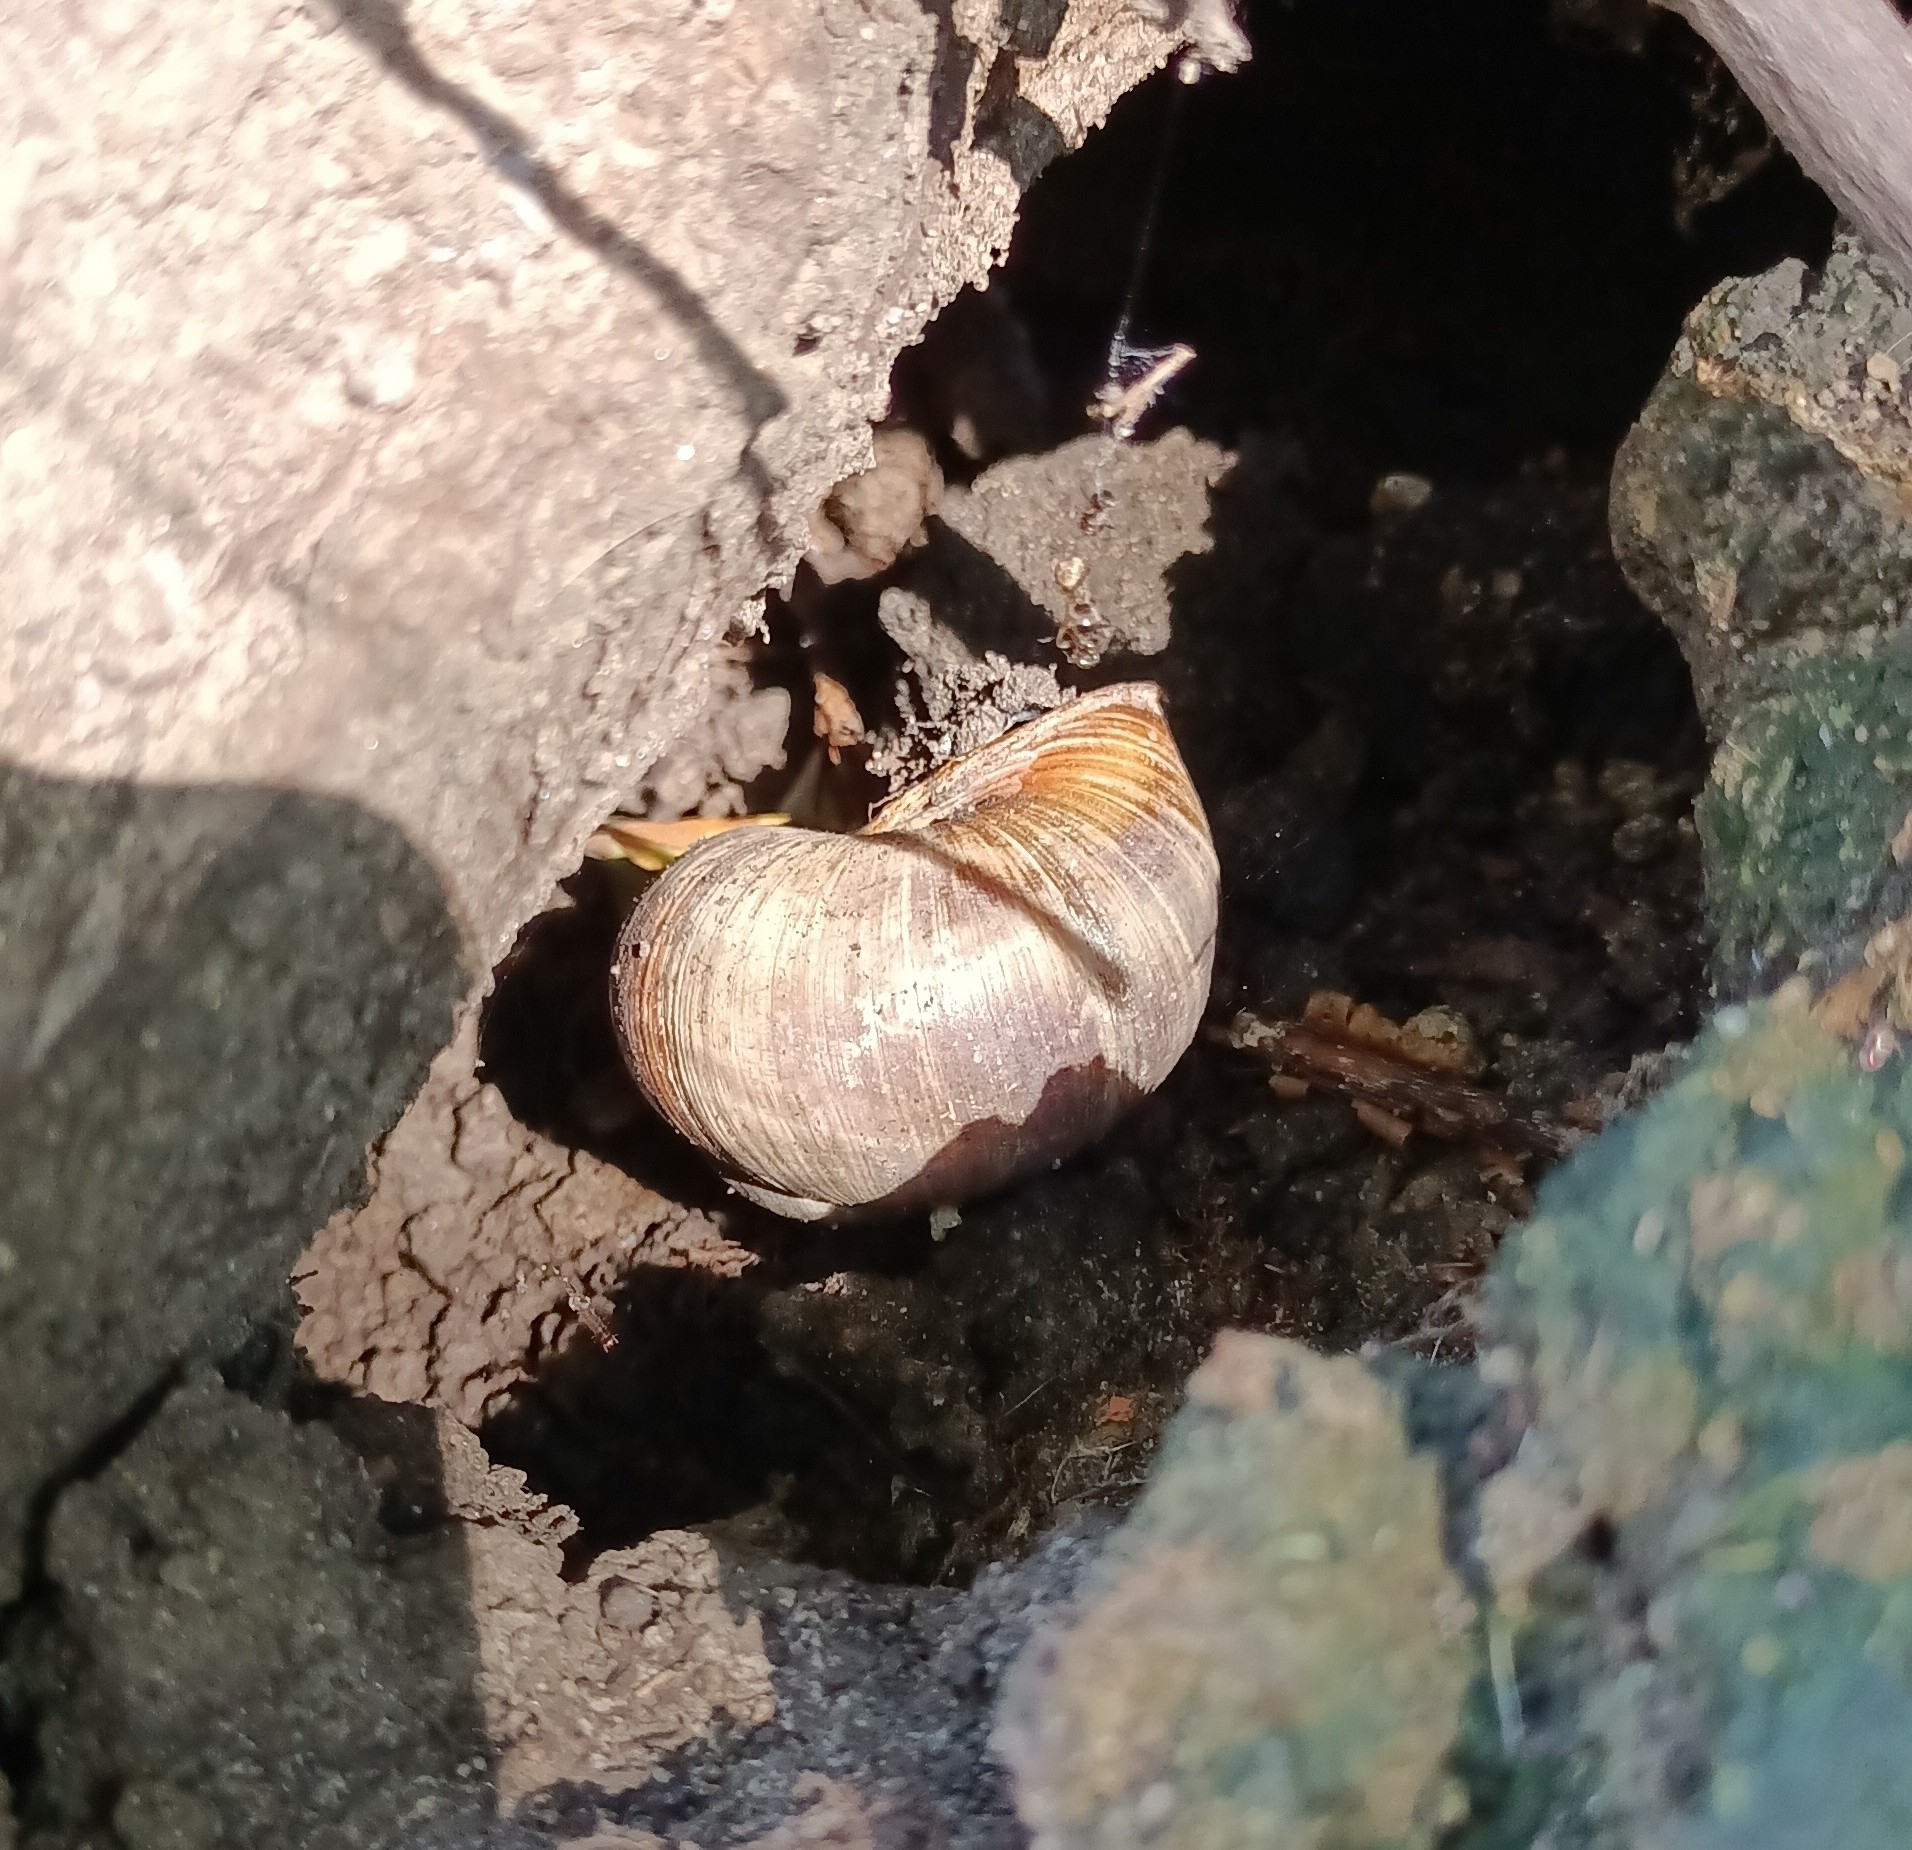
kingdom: Animalia
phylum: Mollusca
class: Gastropoda
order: Stylommatophora
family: Helicidae
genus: Helix
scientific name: Helix pomatia
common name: Roman snail
